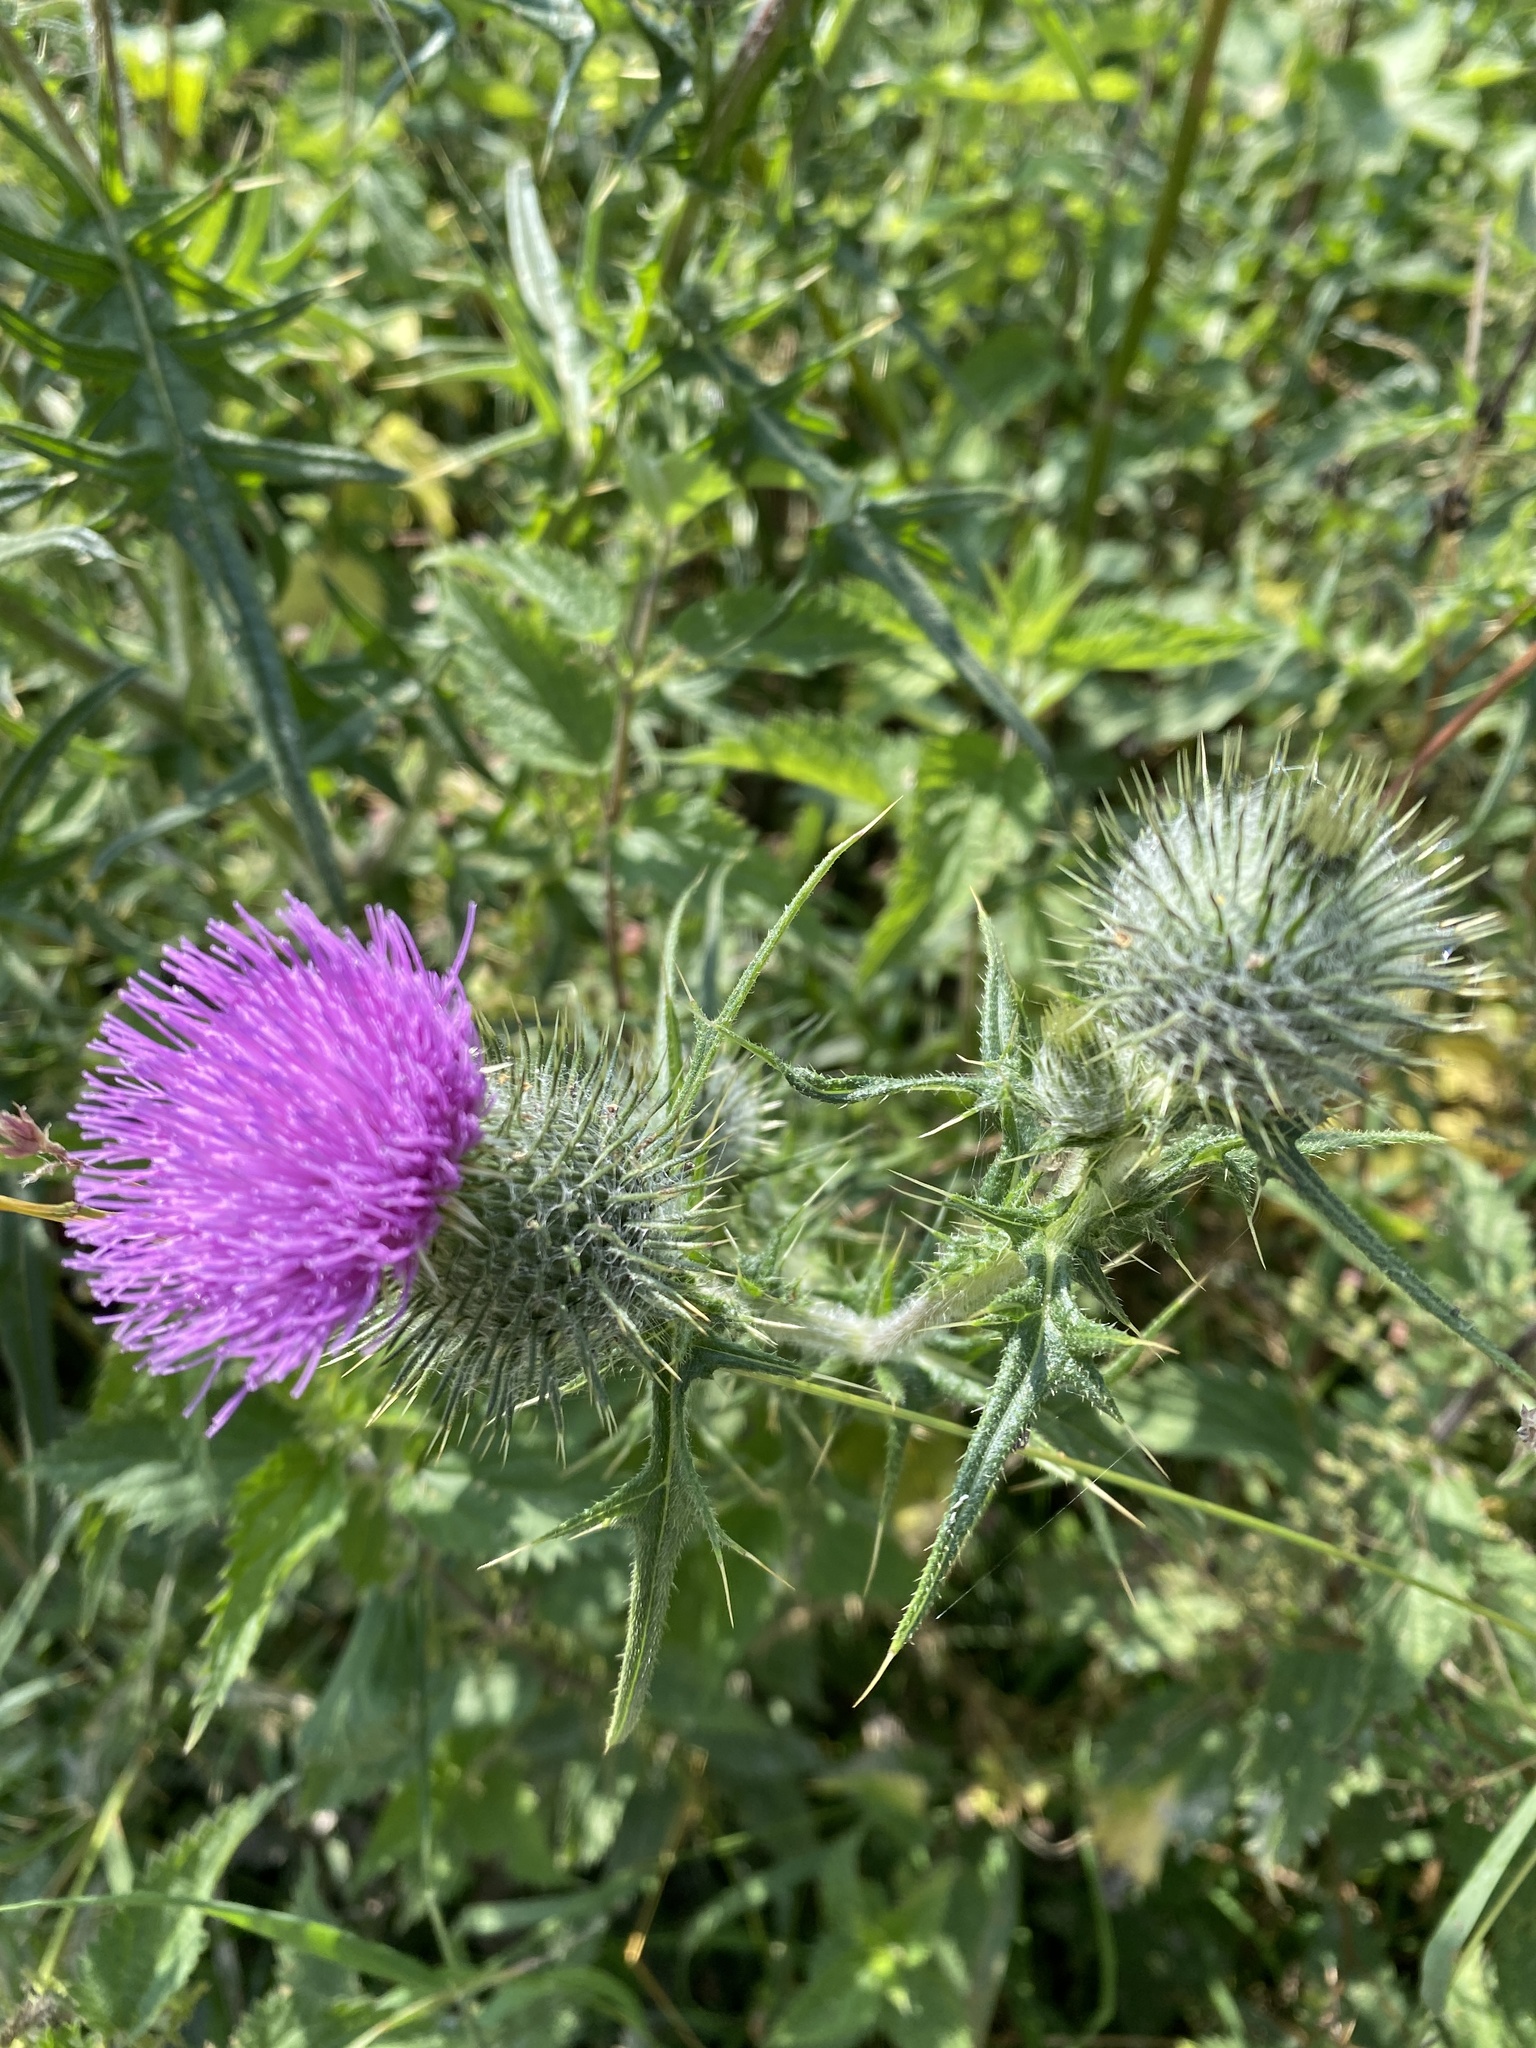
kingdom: Plantae
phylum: Tracheophyta
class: Magnoliopsida
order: Asterales
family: Asteraceae
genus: Cirsium
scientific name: Cirsium vulgare
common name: Bull thistle
